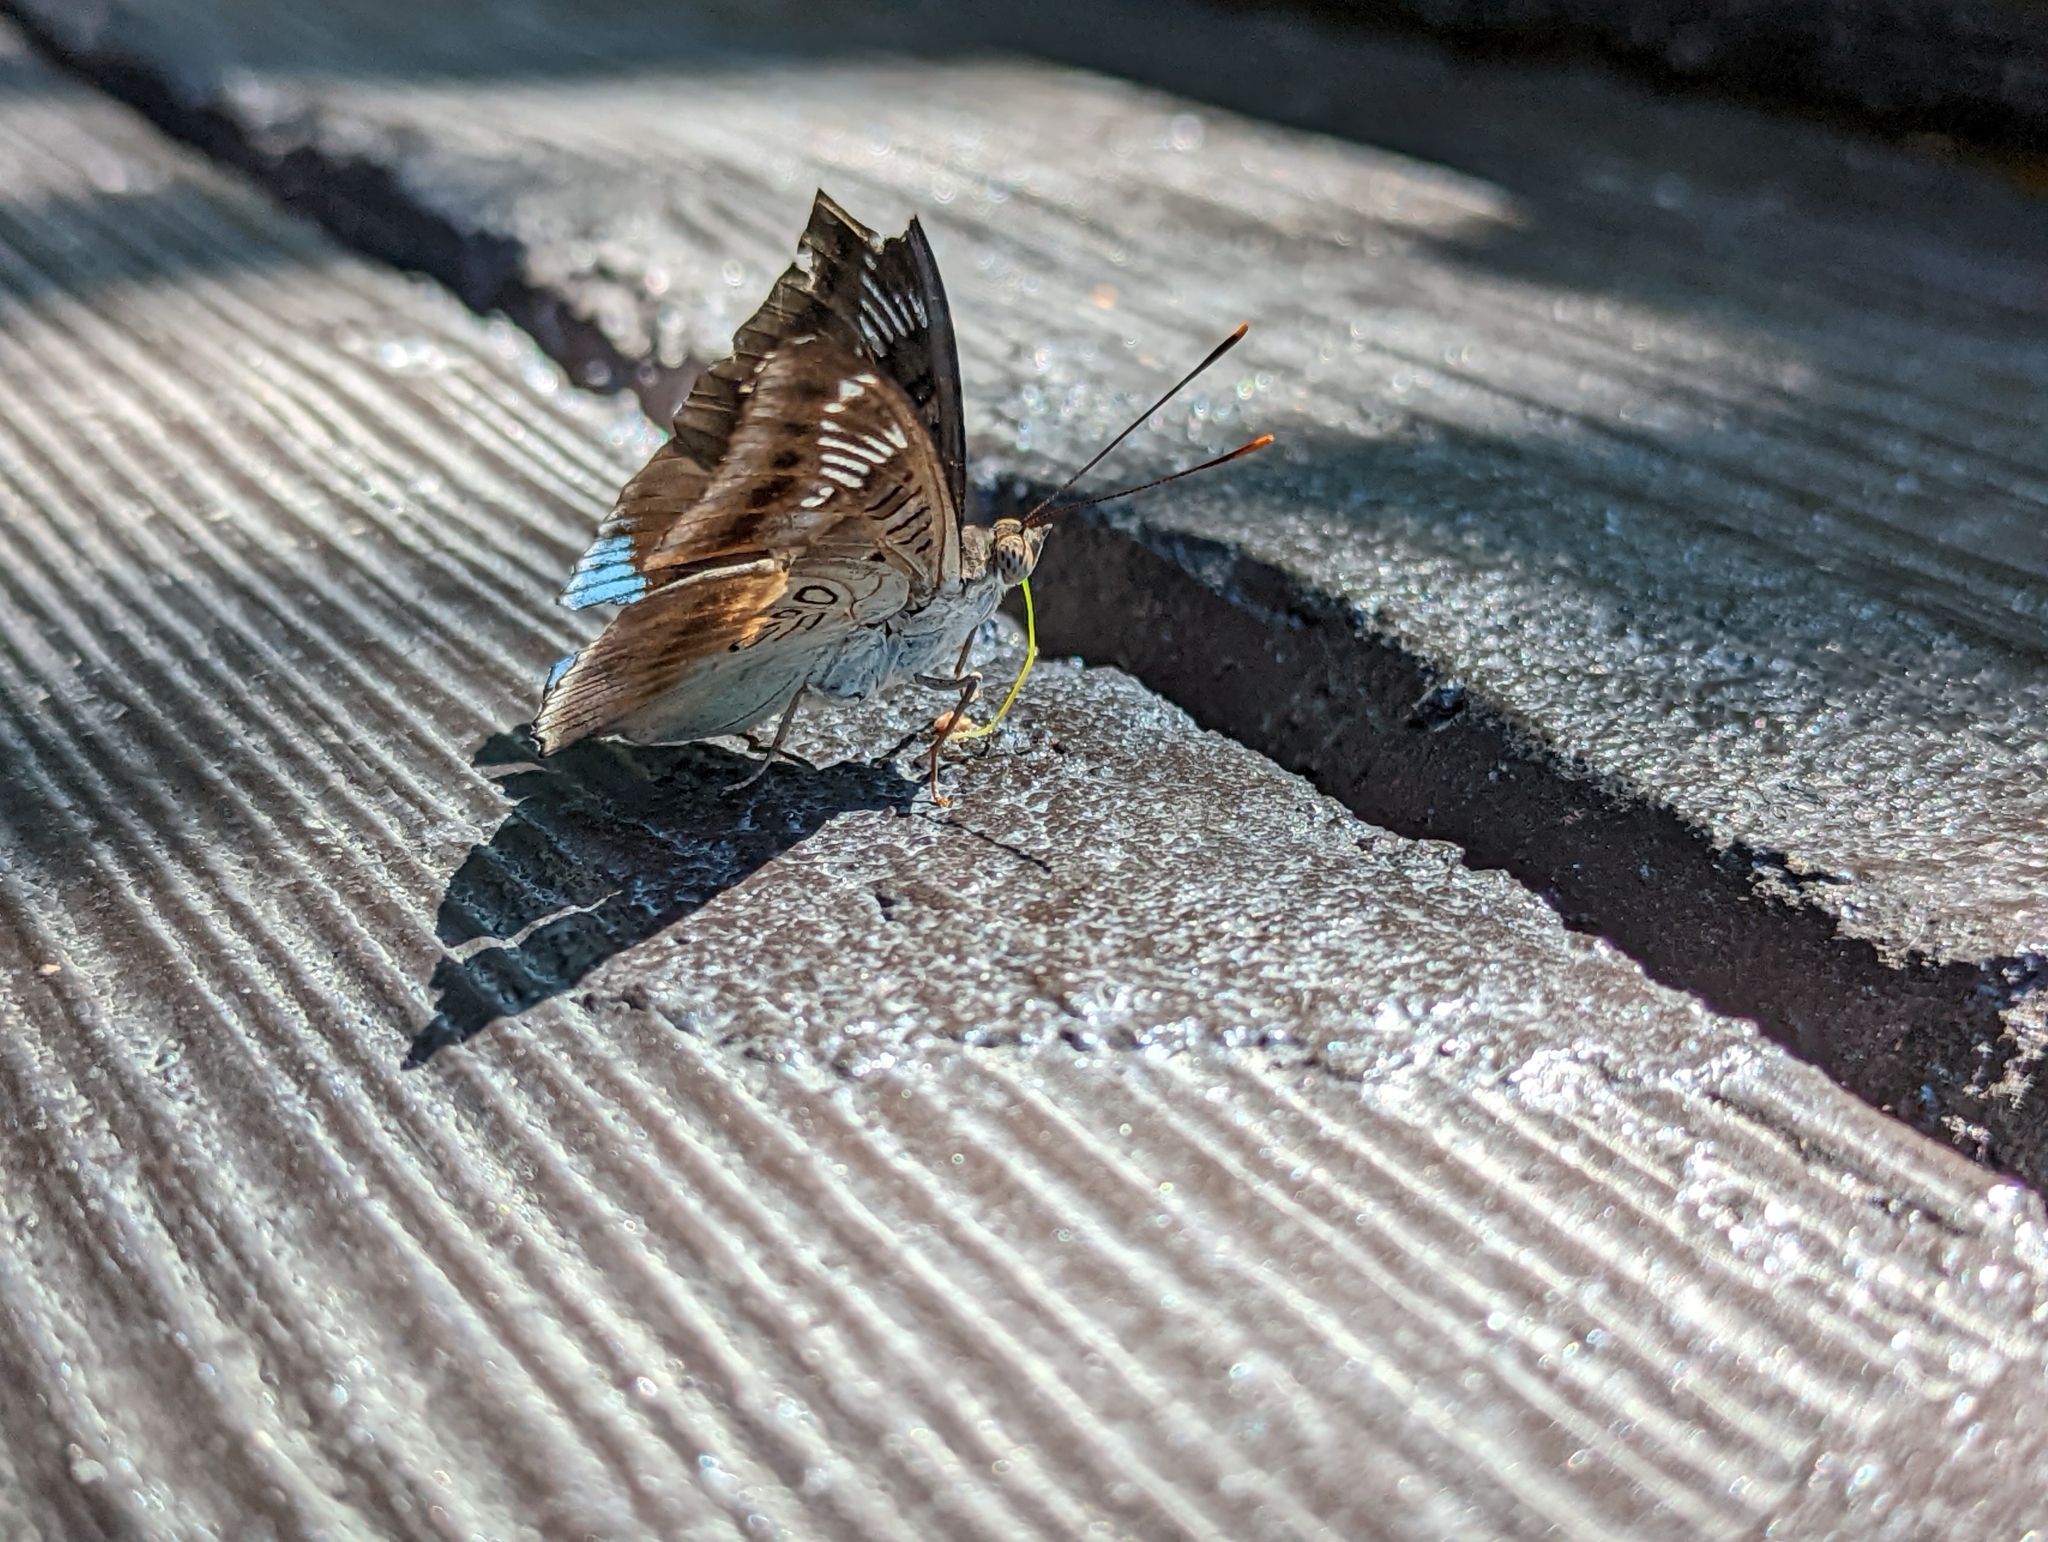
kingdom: Animalia
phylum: Arthropoda
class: Insecta
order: Lepidoptera
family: Nymphalidae
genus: Euthalia
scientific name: Euthalia phemius
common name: White-edged blue baron
